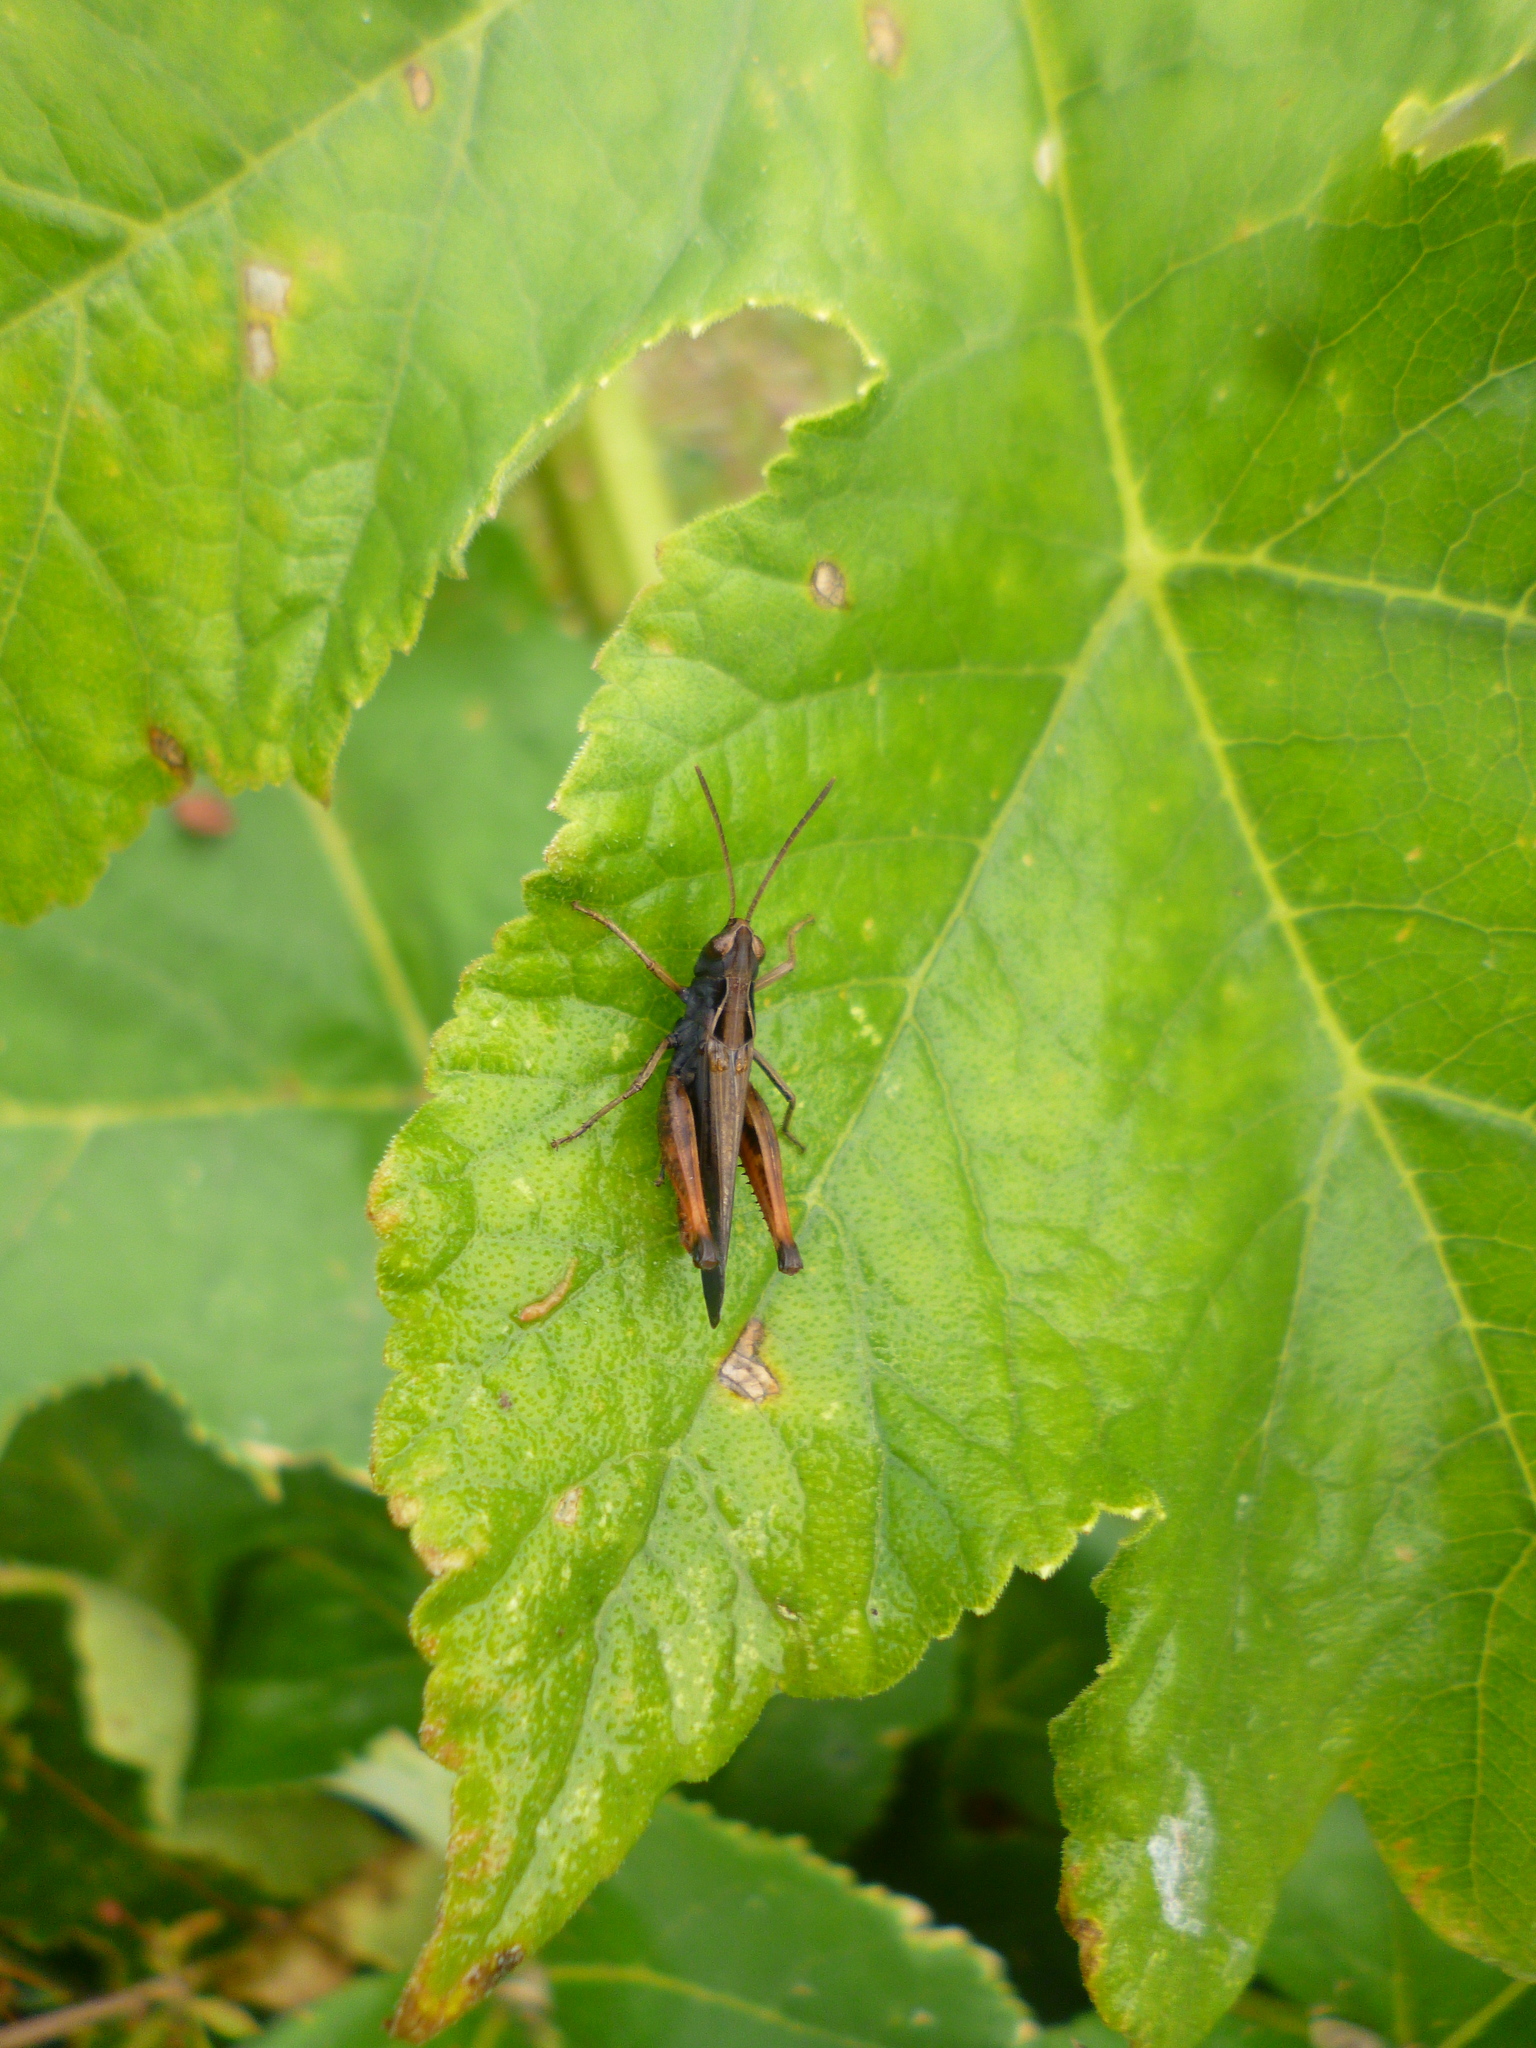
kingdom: Animalia
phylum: Arthropoda
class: Insecta
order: Orthoptera
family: Acrididae
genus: Omocestus
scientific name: Omocestus rufipes
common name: Woodland grasshopper
